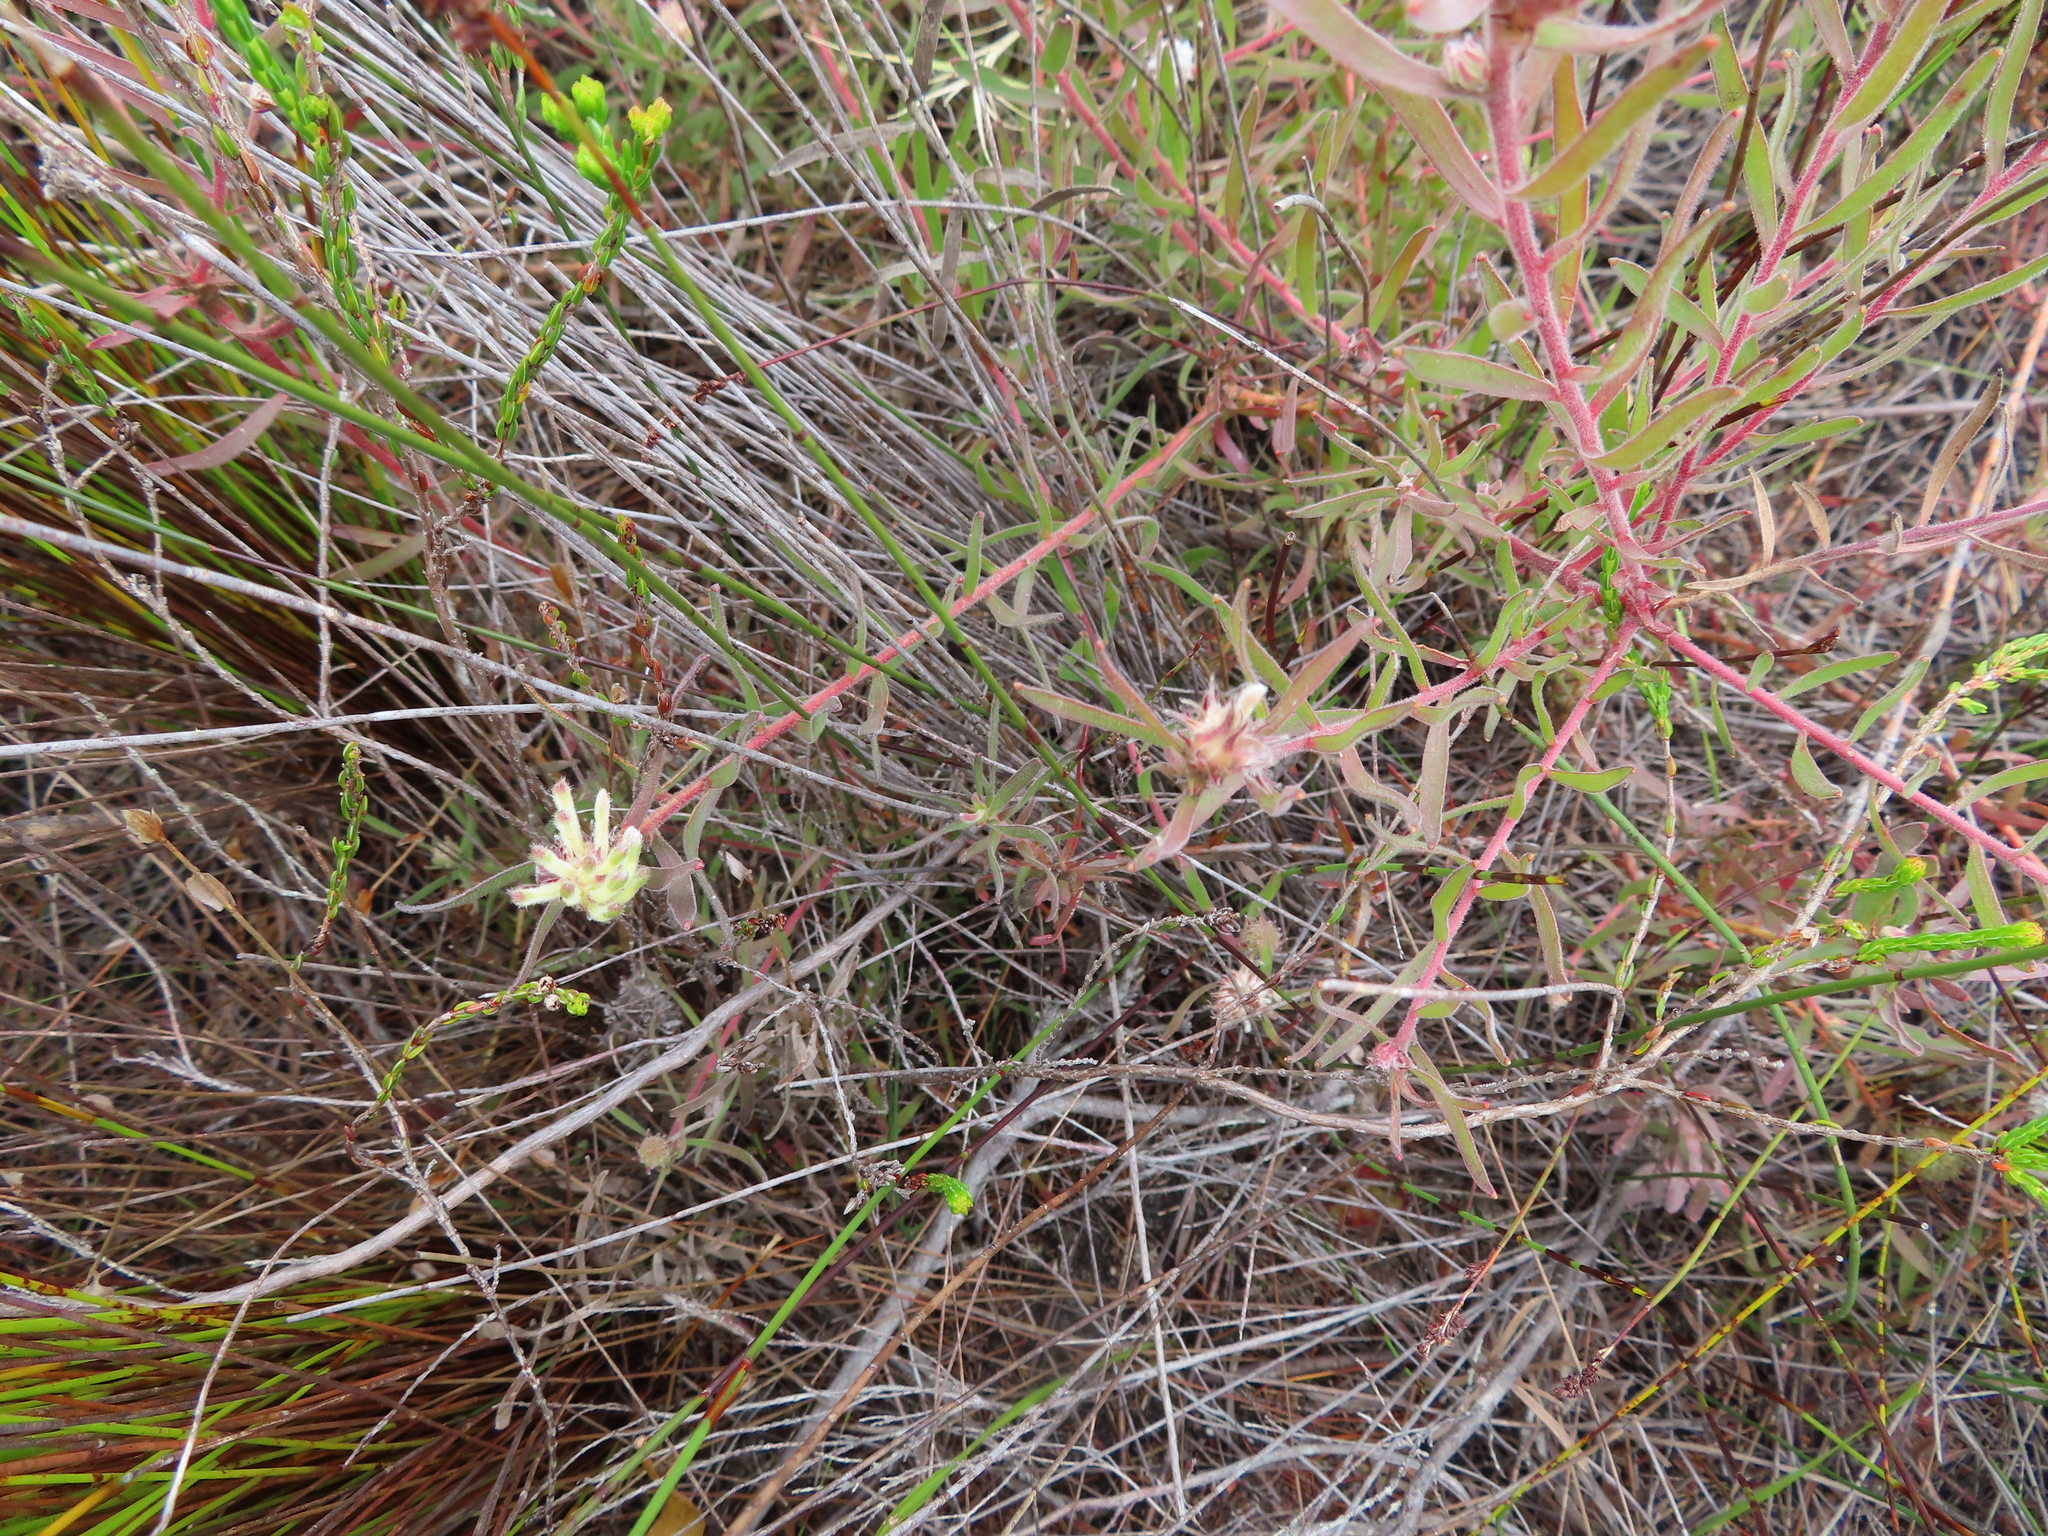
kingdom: Plantae
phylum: Tracheophyta
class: Magnoliopsida
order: Proteales
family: Proteaceae
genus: Leucospermum
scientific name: Leucospermum pedunculatum
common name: White-trailing pincushion
